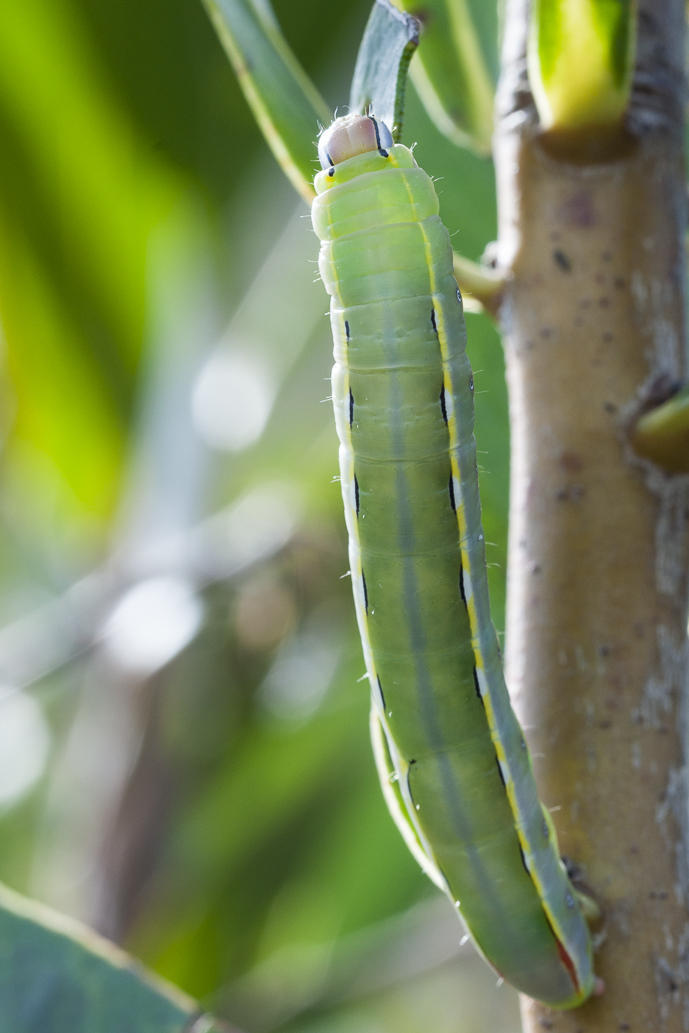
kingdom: Animalia
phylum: Arthropoda
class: Insecta
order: Lepidoptera
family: Notodontidae
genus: Catochria
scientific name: Catochria catocaloides
